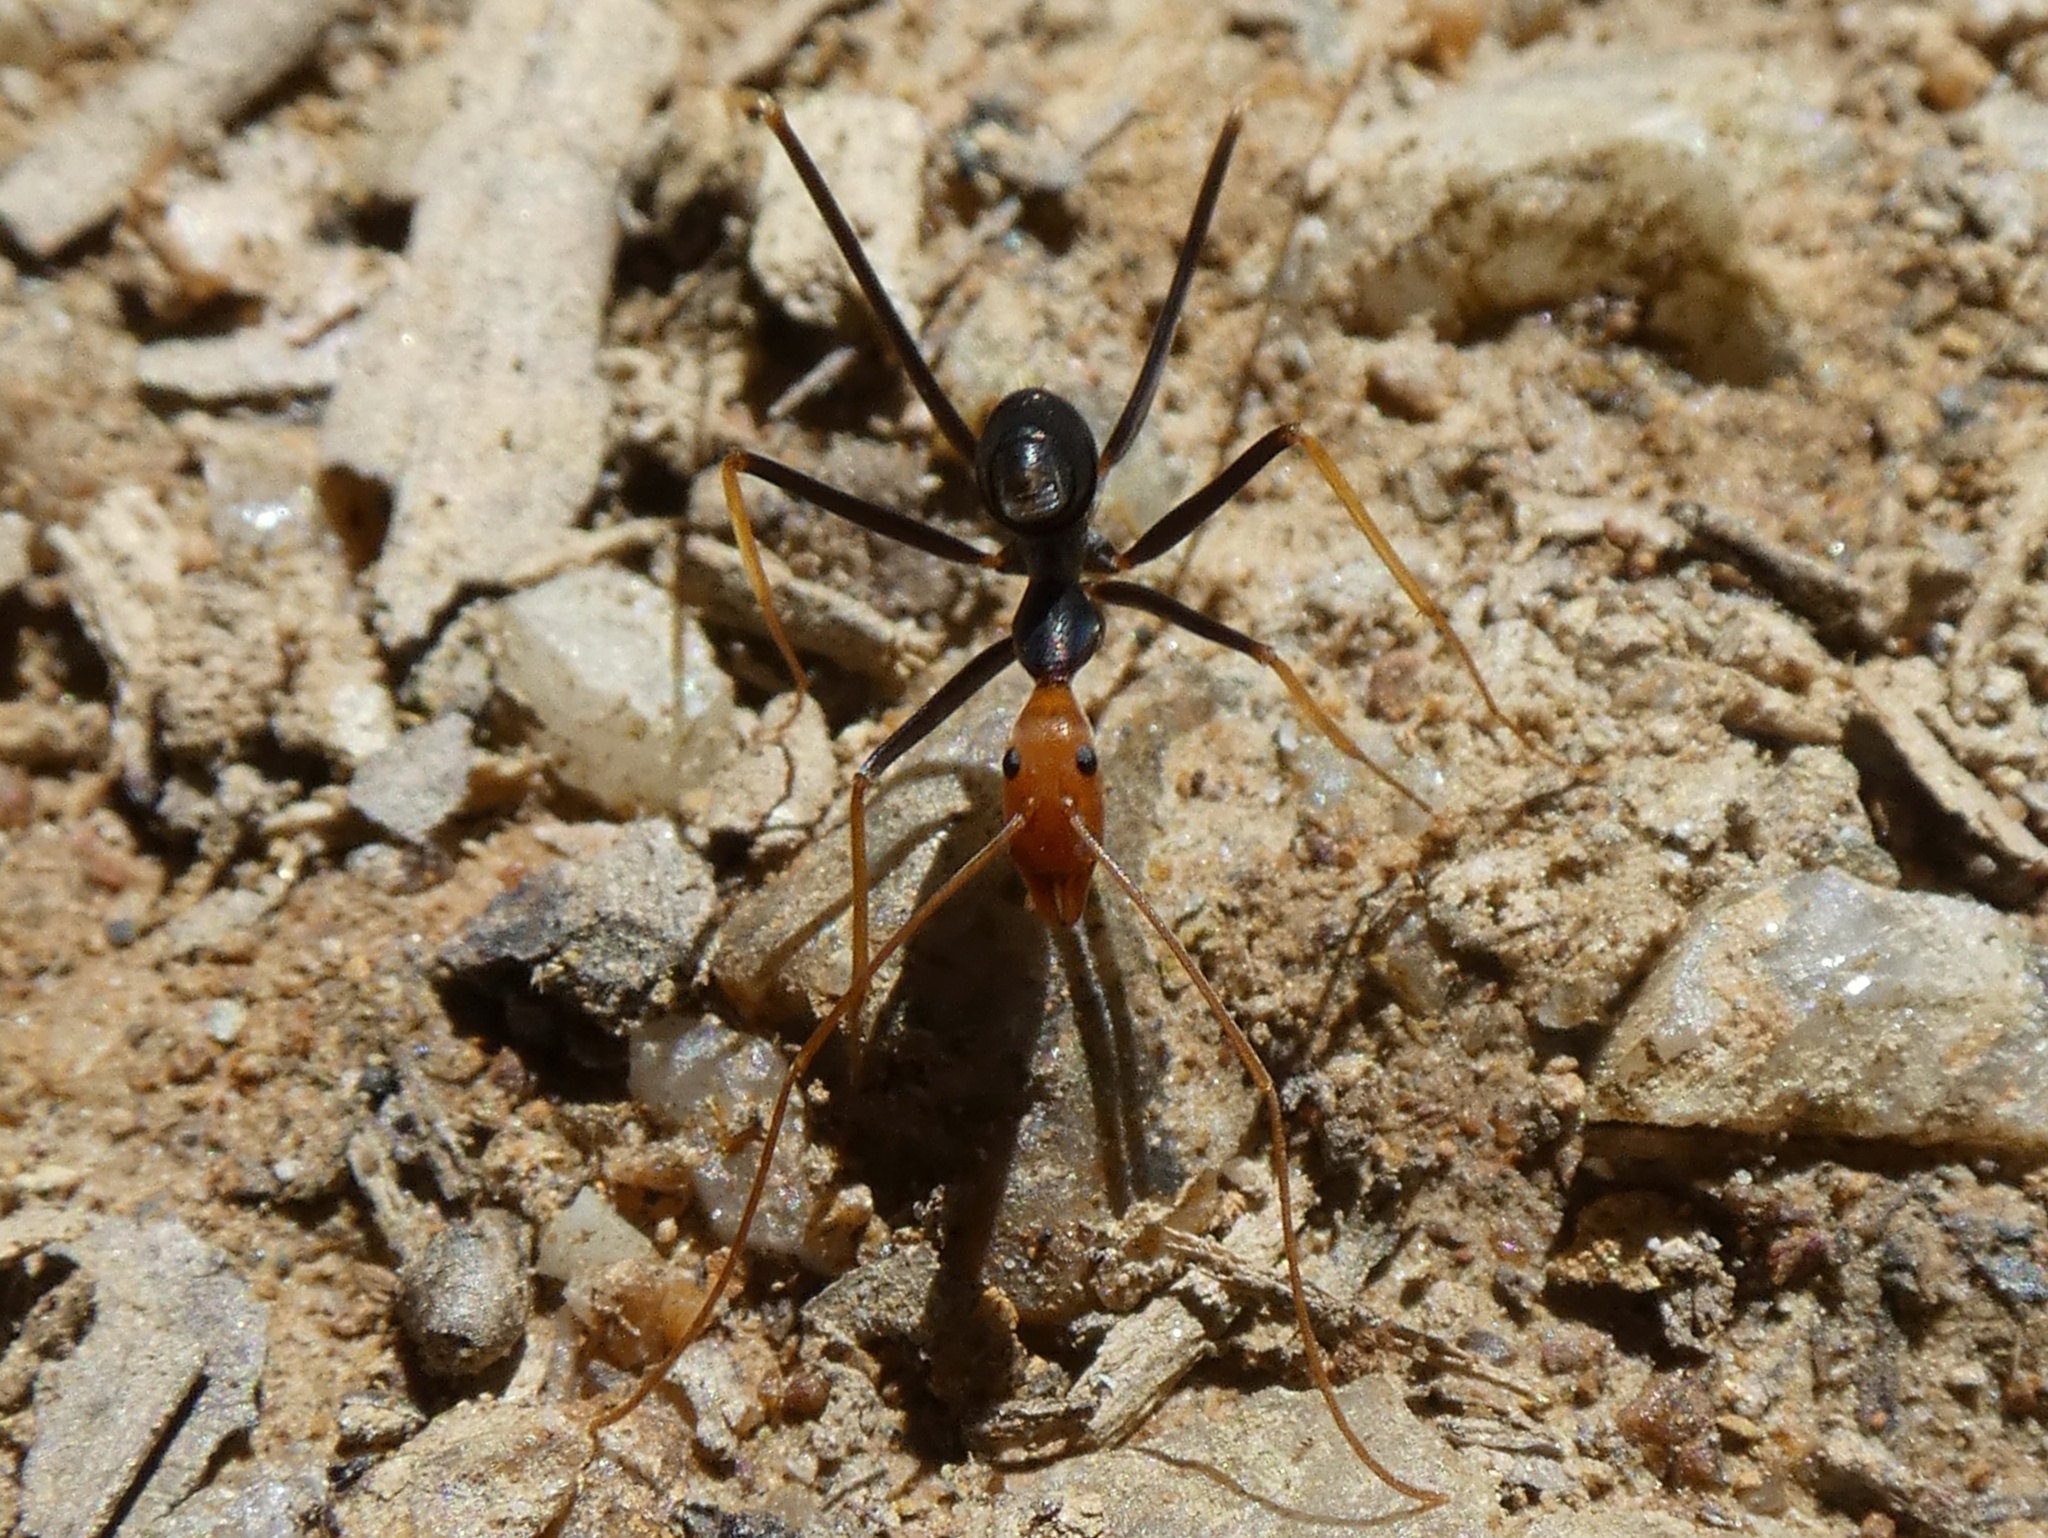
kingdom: Animalia
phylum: Arthropoda
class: Insecta
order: Hymenoptera
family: Formicidae
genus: Leptomyrmex
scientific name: Leptomyrmex ruficeps
